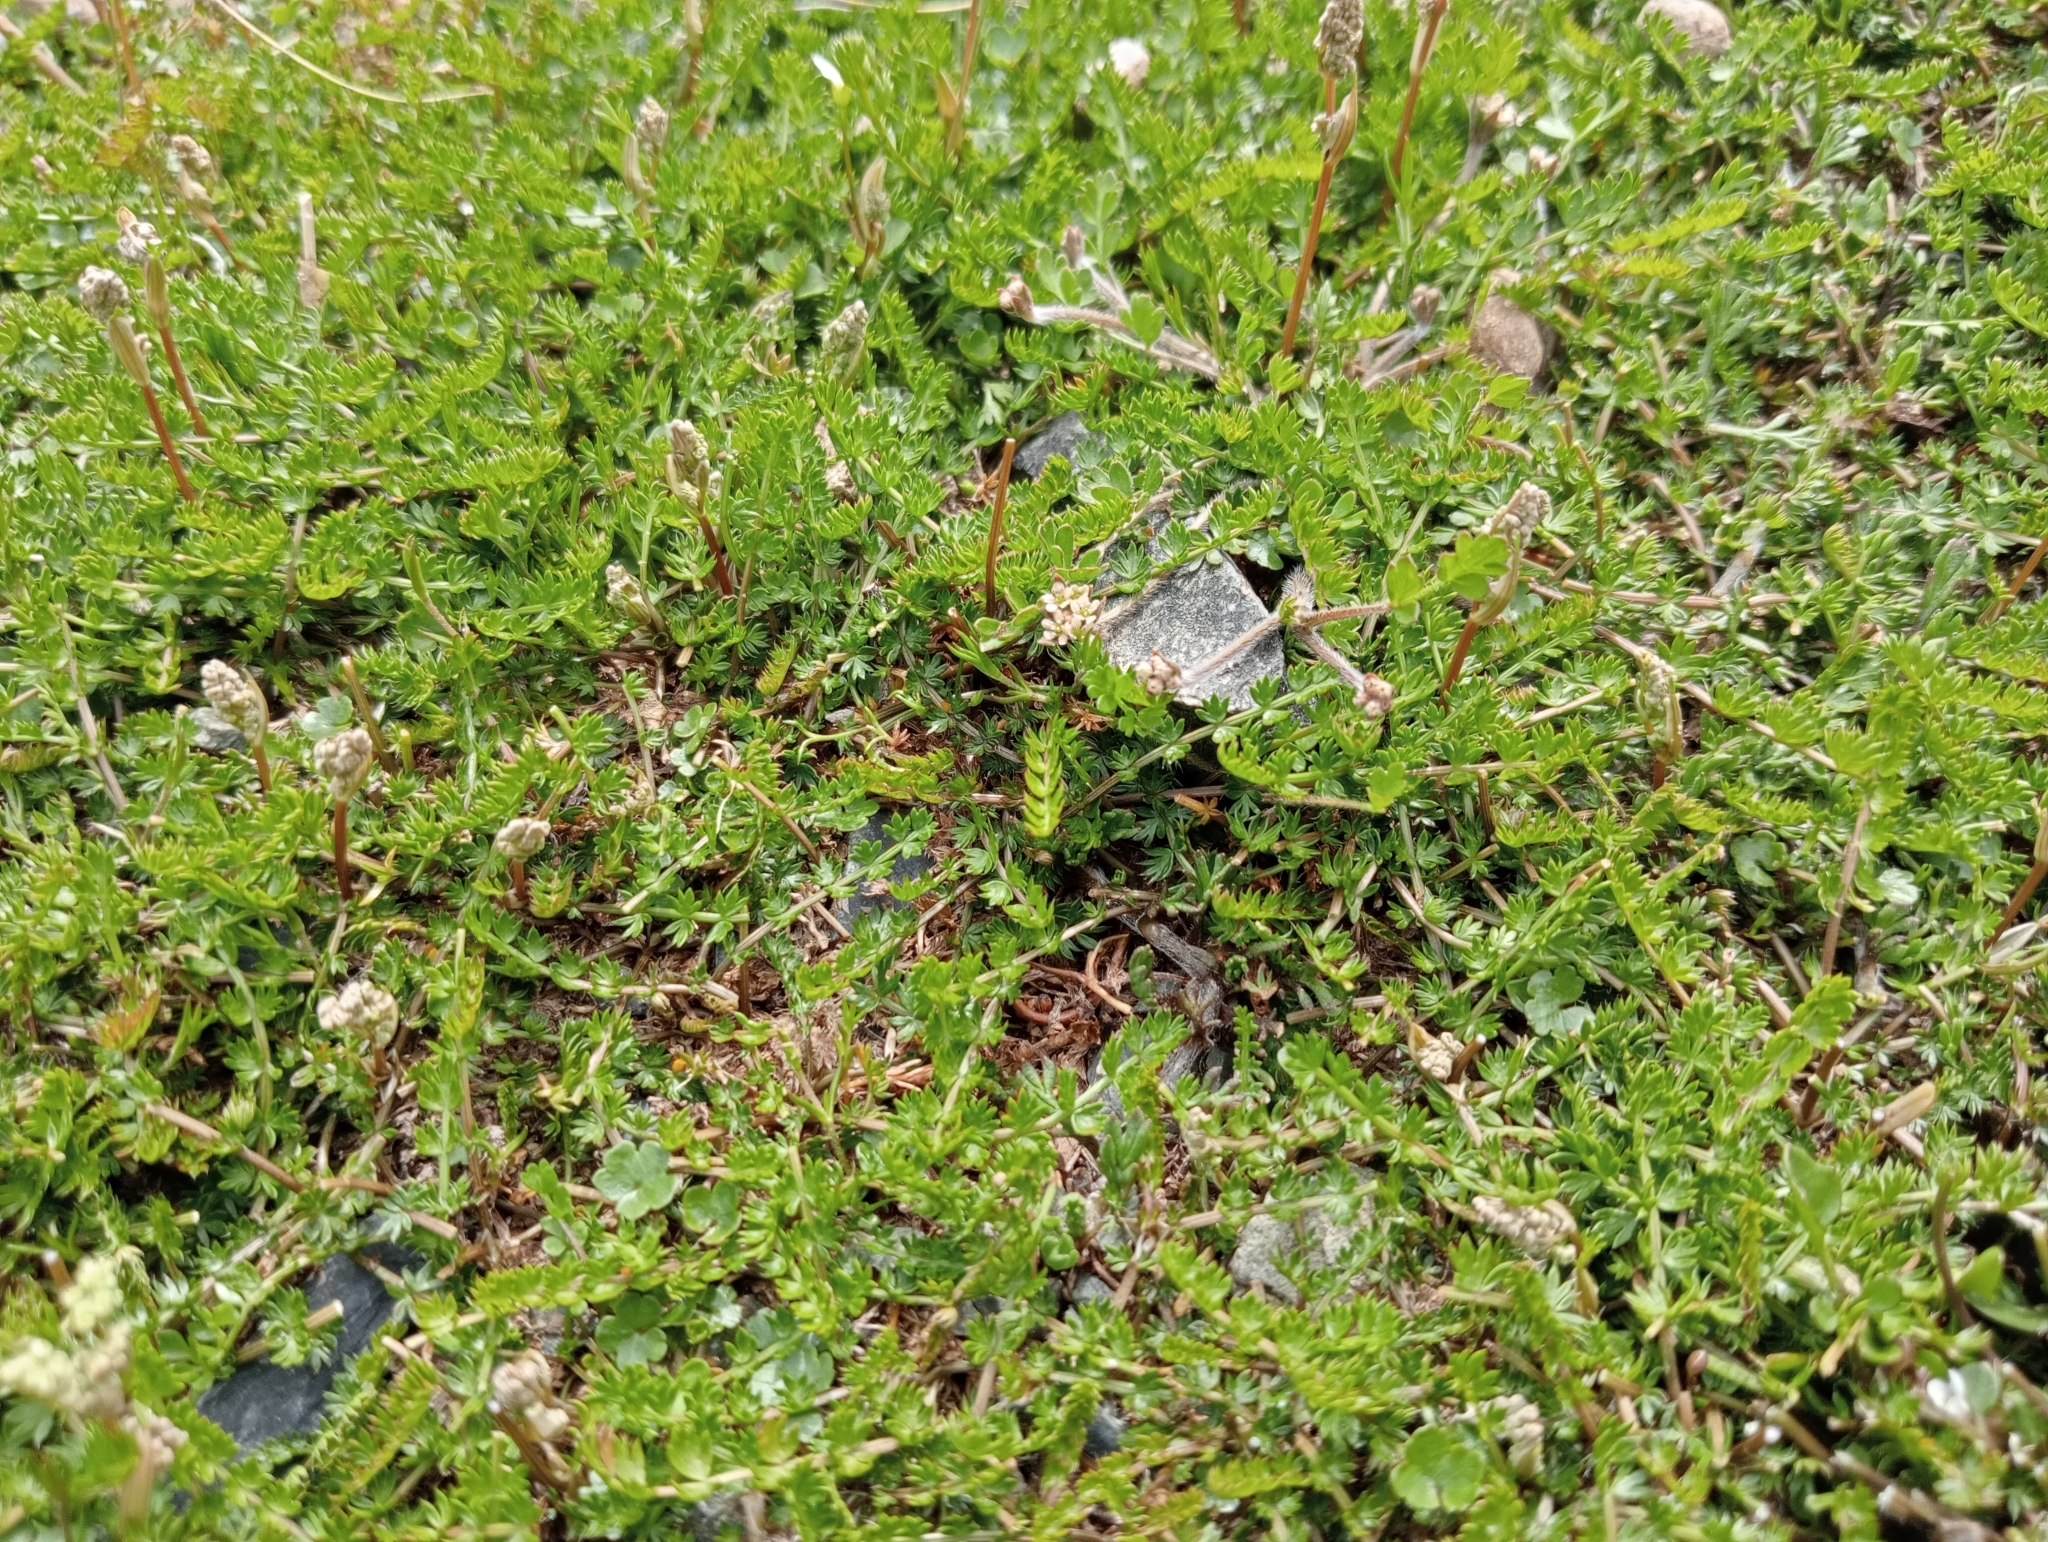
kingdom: Plantae
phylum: Tracheophyta
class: Magnoliopsida
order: Apiales
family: Apiaceae
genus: Chaerophyllum
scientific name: Chaerophyllum colensoi
